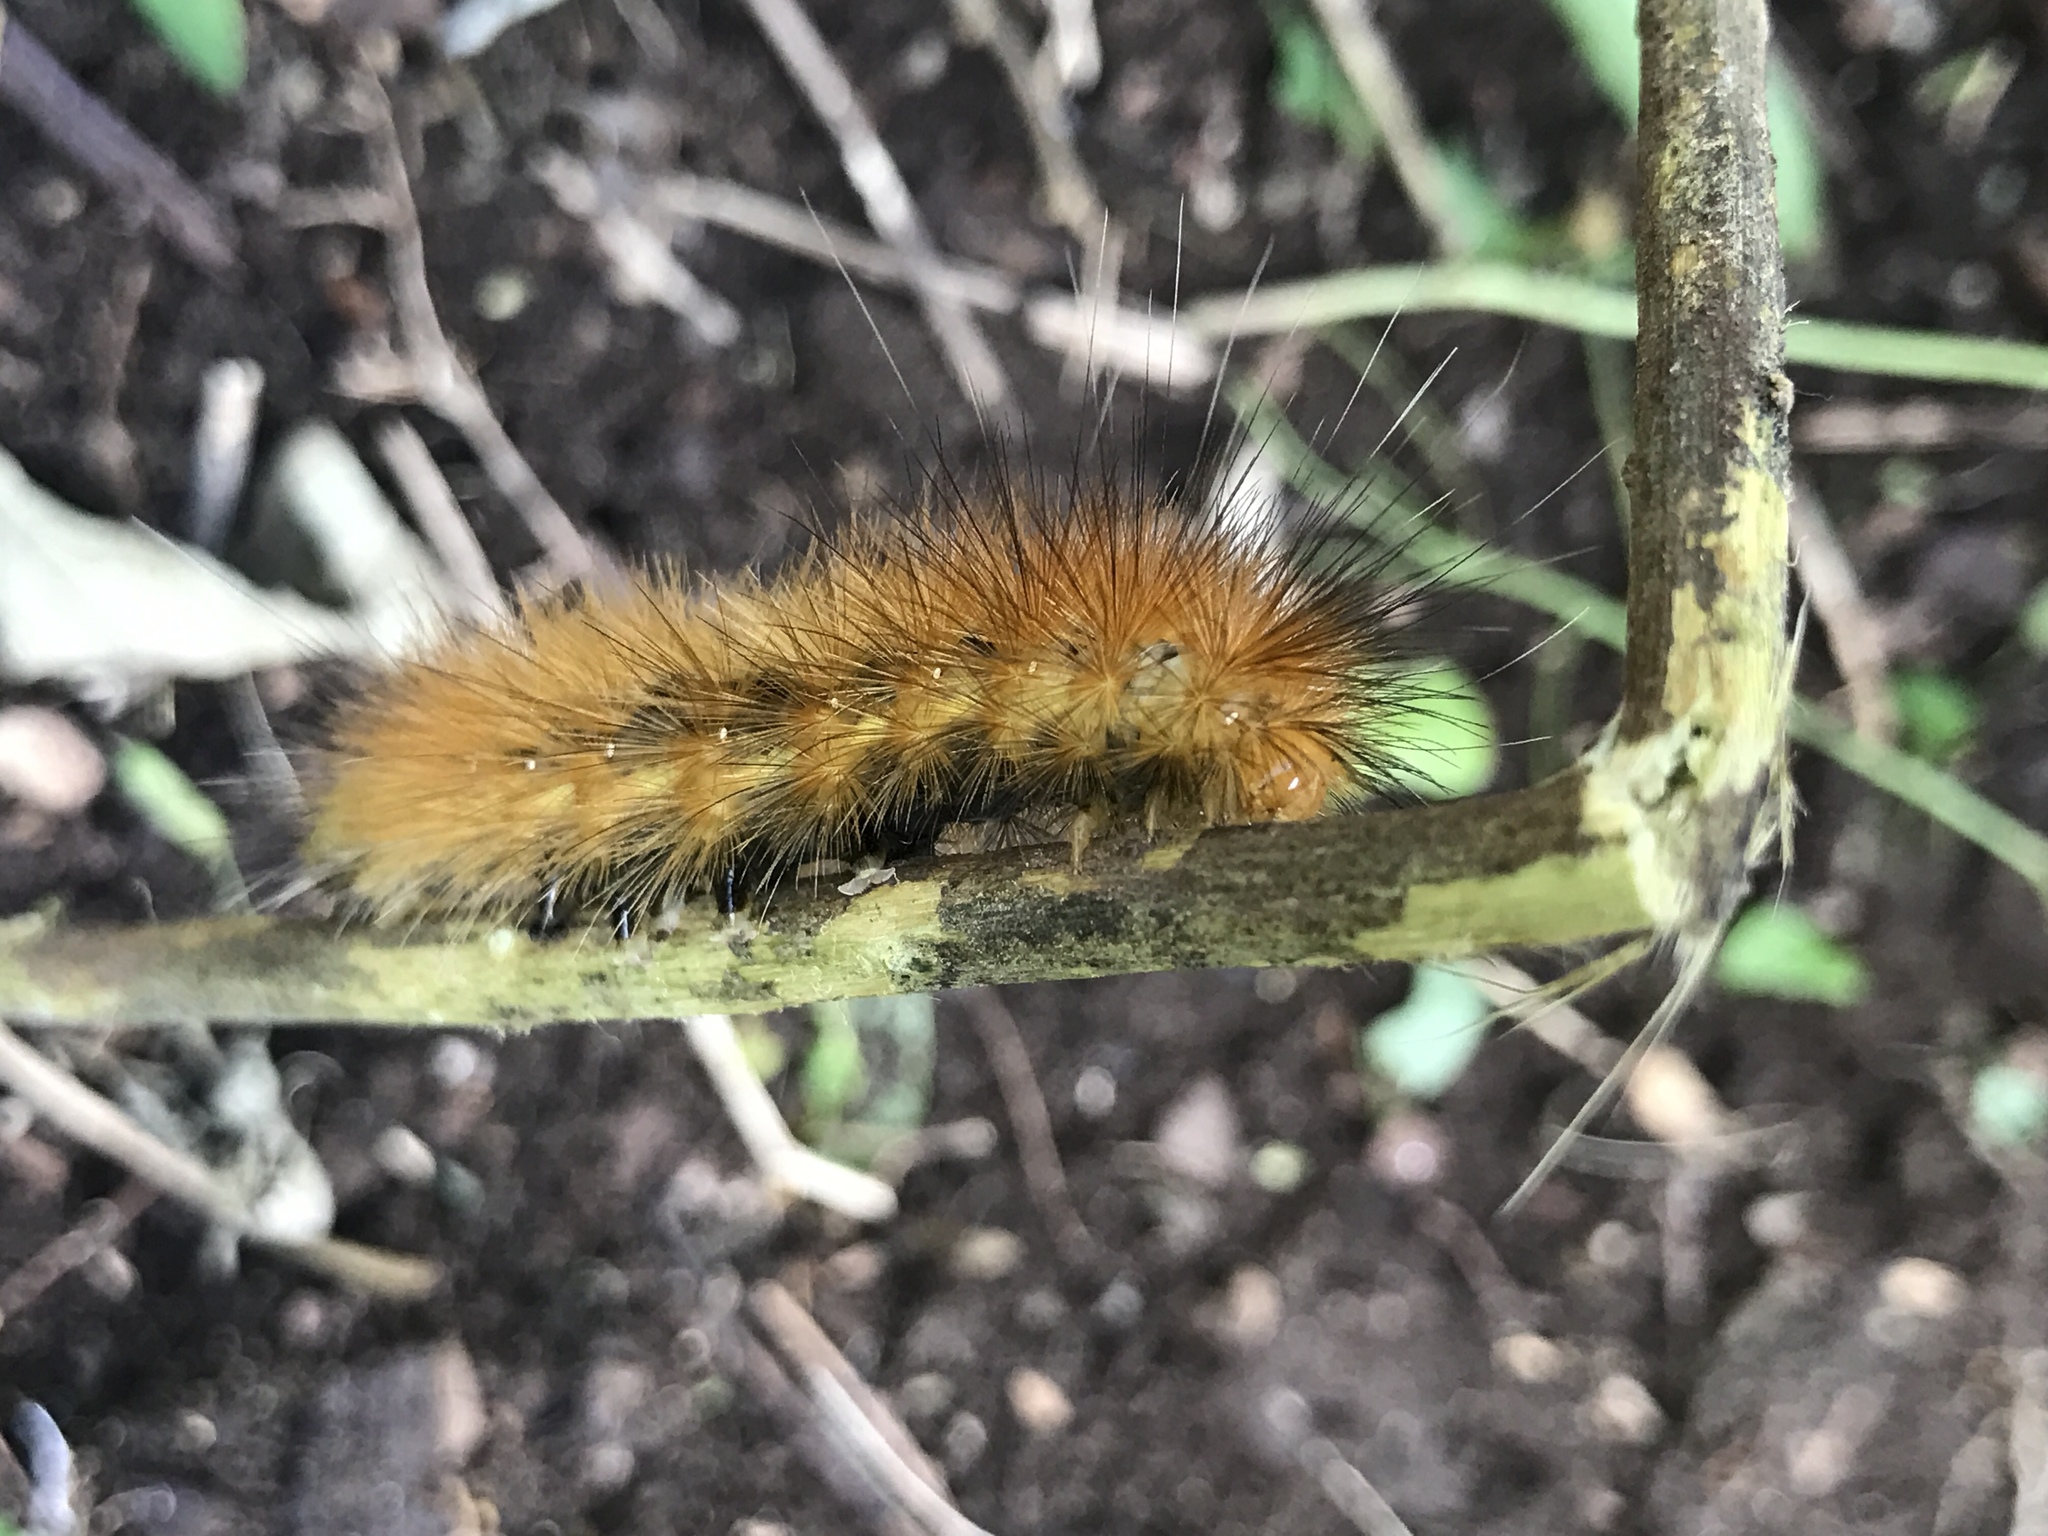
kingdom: Animalia
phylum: Arthropoda
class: Insecta
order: Lepidoptera
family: Erebidae
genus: Spilosoma
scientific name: Spilosoma virginica
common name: Virginia tiger moth
